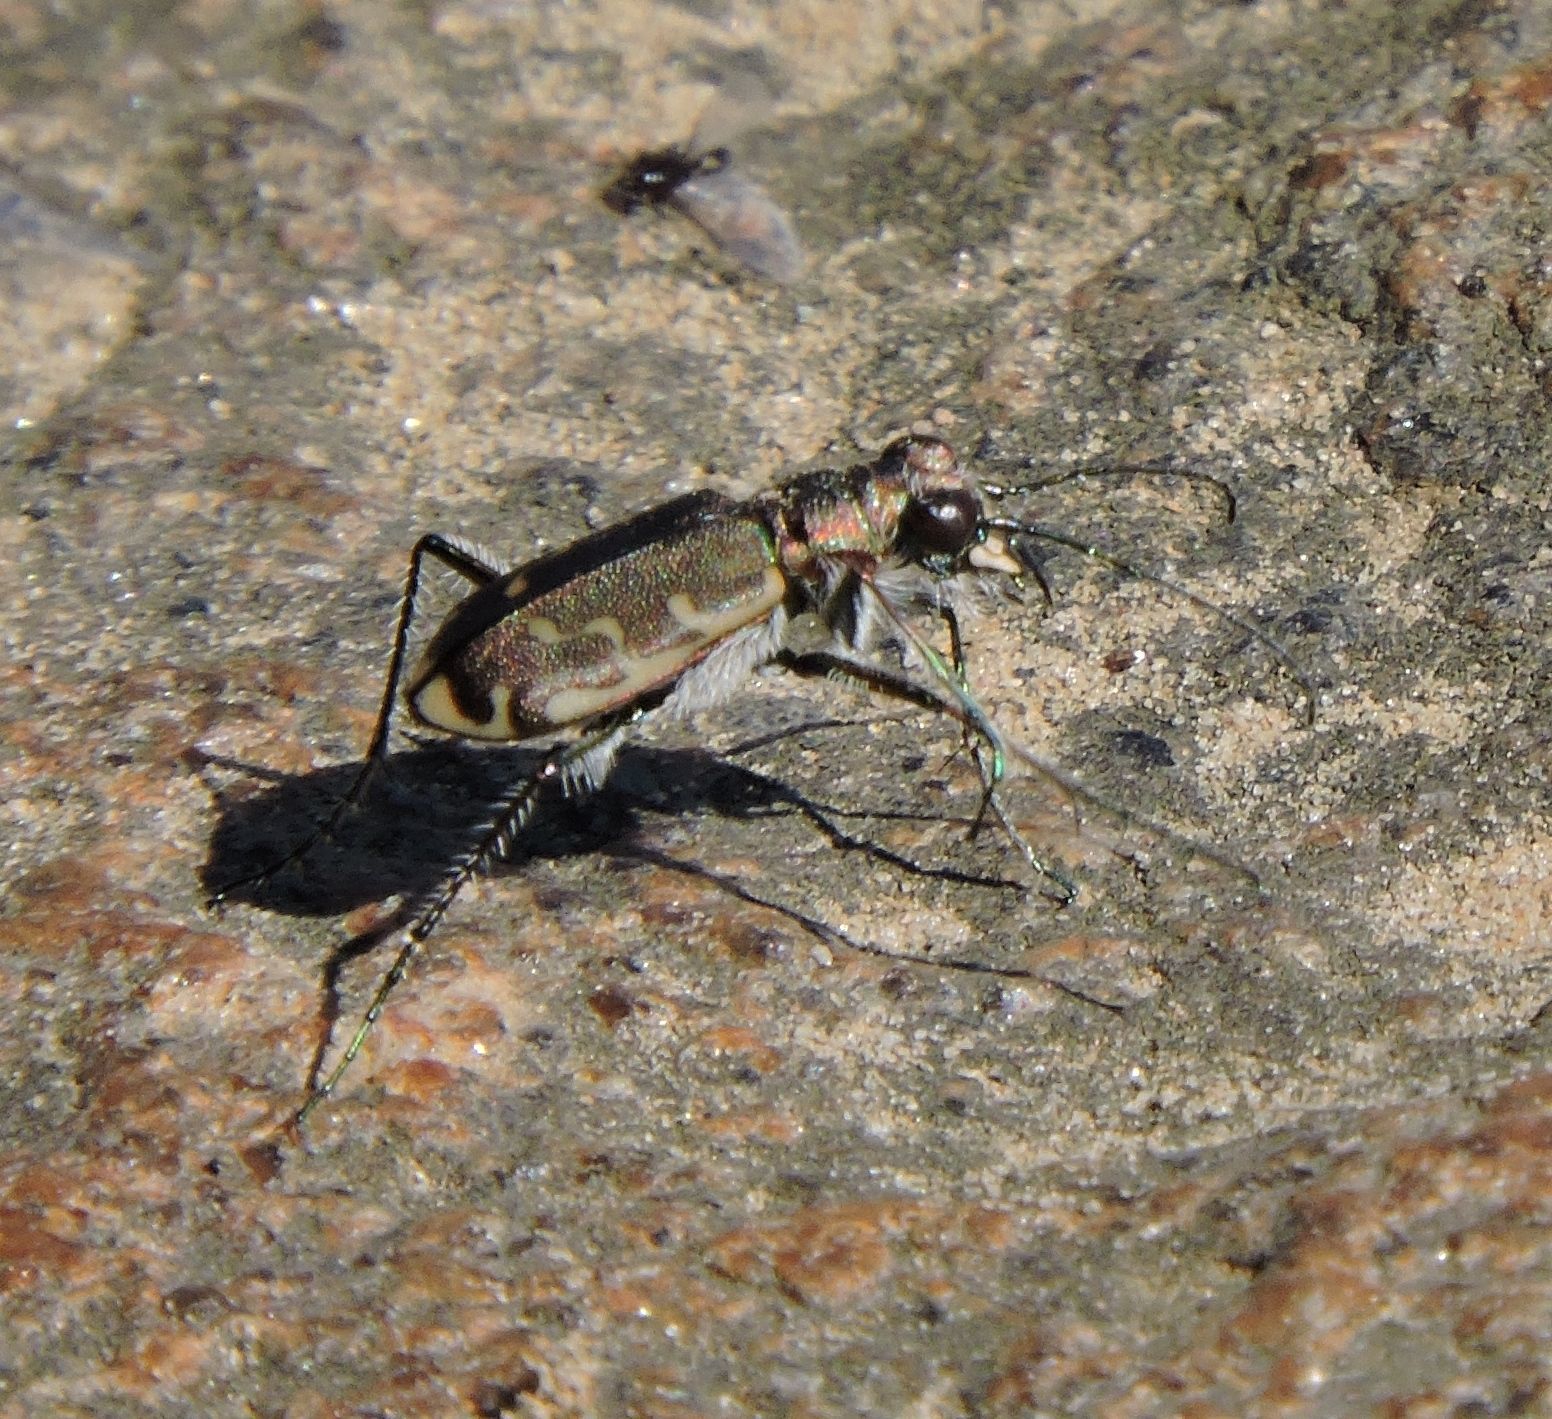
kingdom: Animalia
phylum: Arthropoda
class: Insecta
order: Coleoptera
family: Carabidae
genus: Cicindela
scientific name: Cicindela repanda
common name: Bronzed tiger beetle
